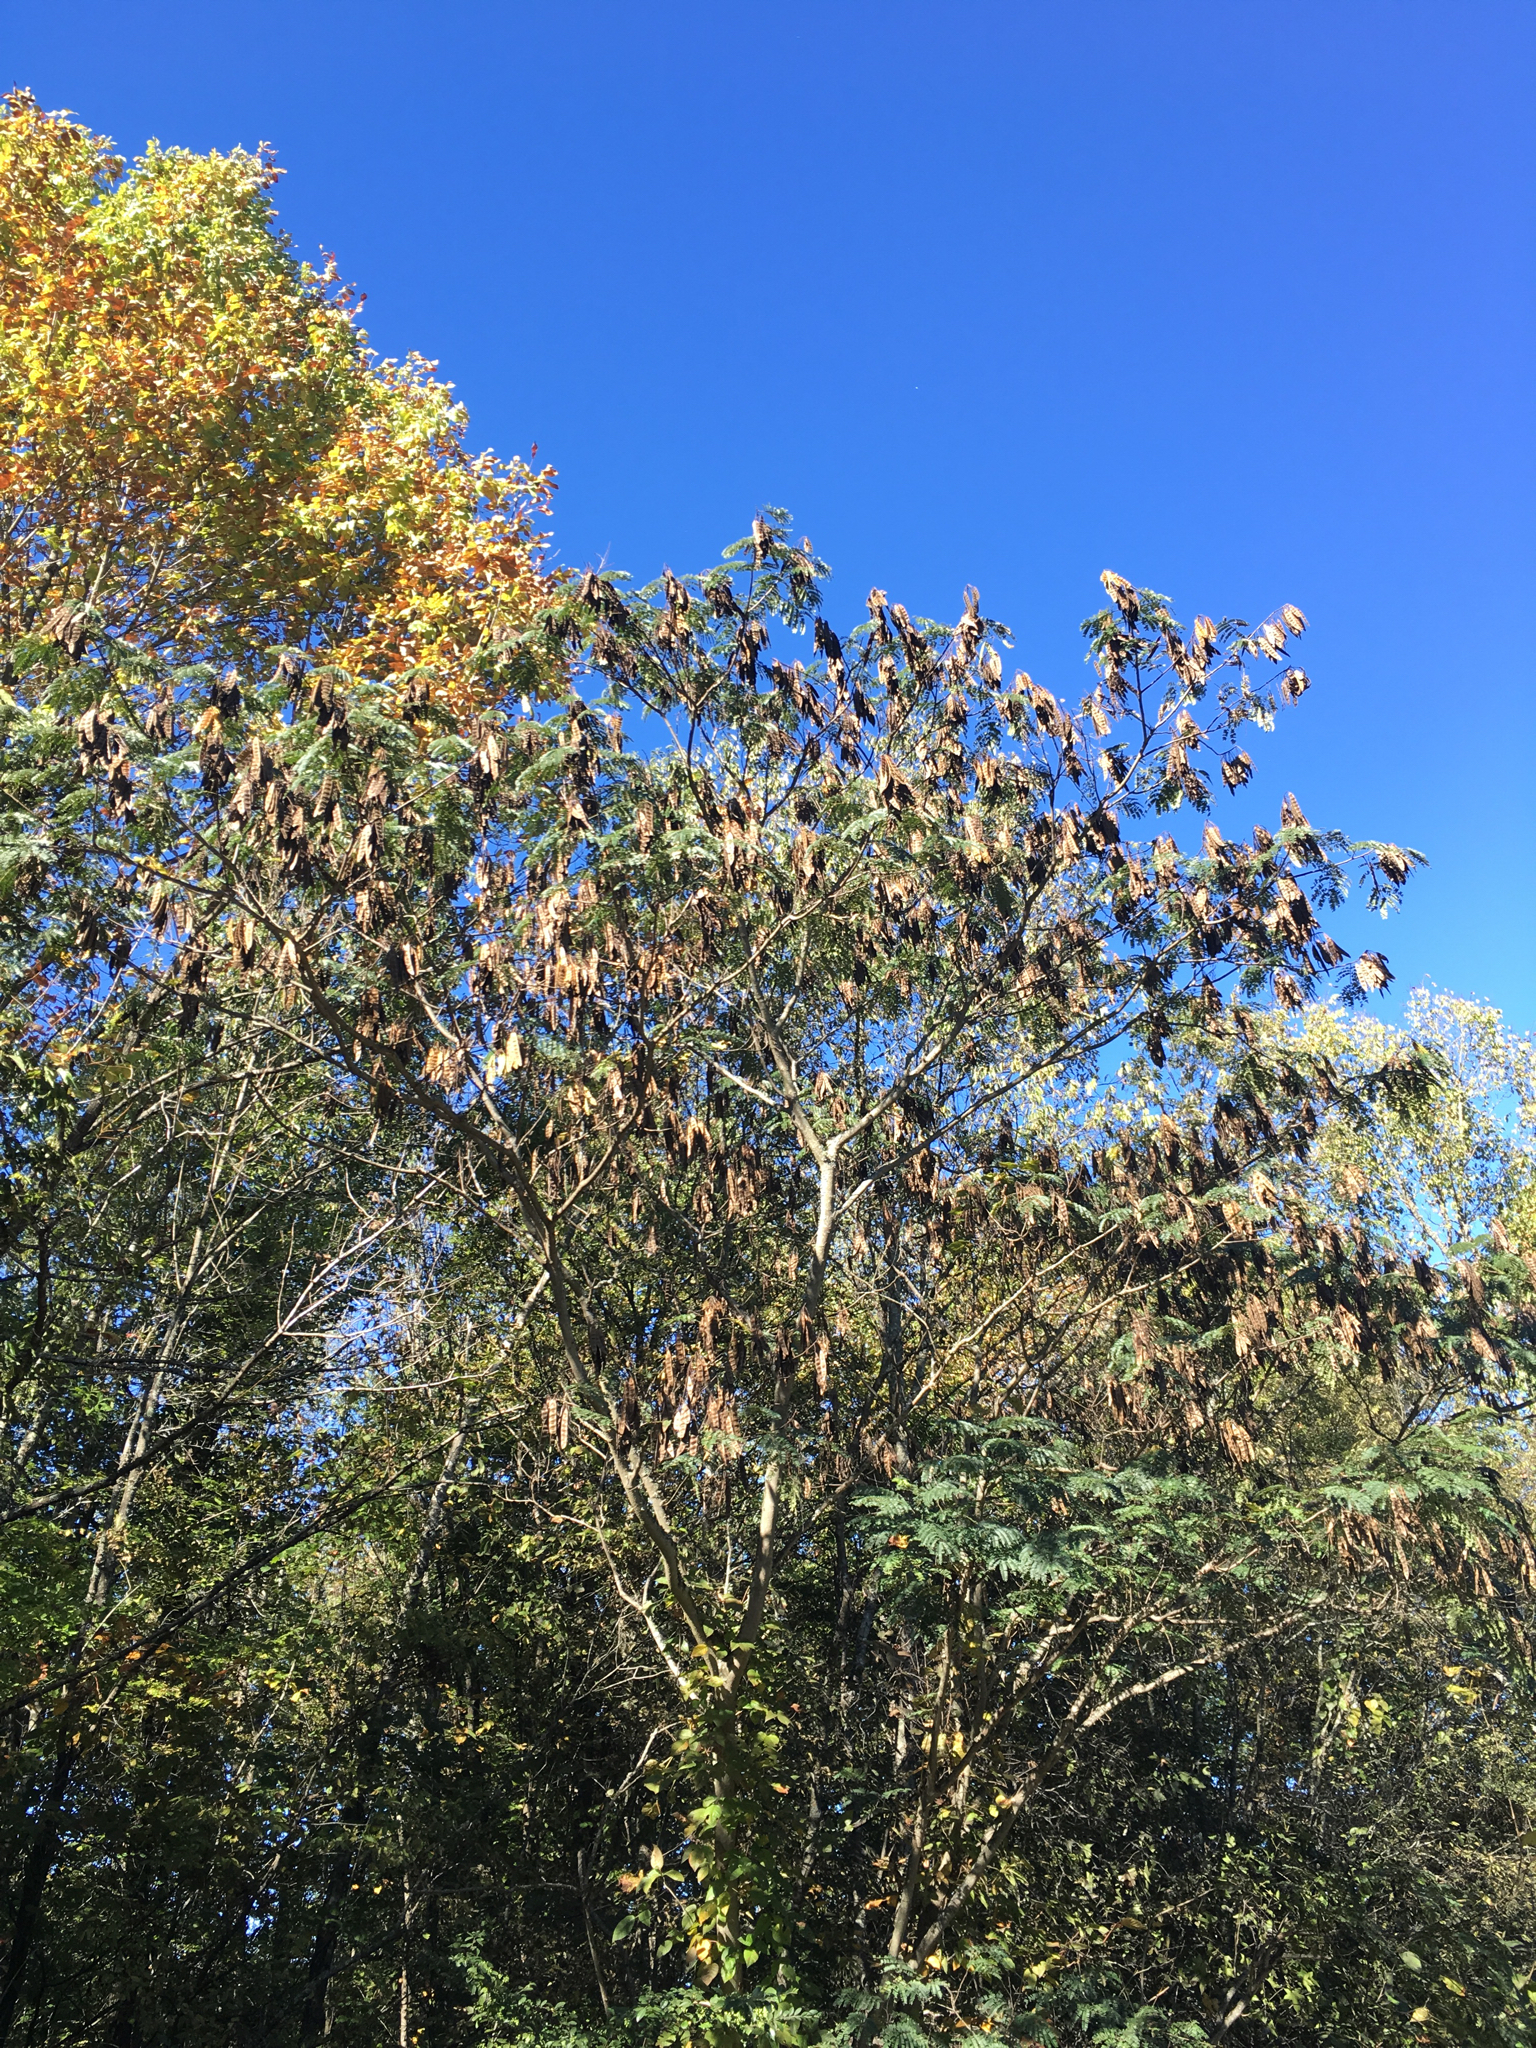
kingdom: Plantae
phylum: Tracheophyta
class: Magnoliopsida
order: Fabales
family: Fabaceae
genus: Albizia
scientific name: Albizia julibrissin
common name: Silktree
